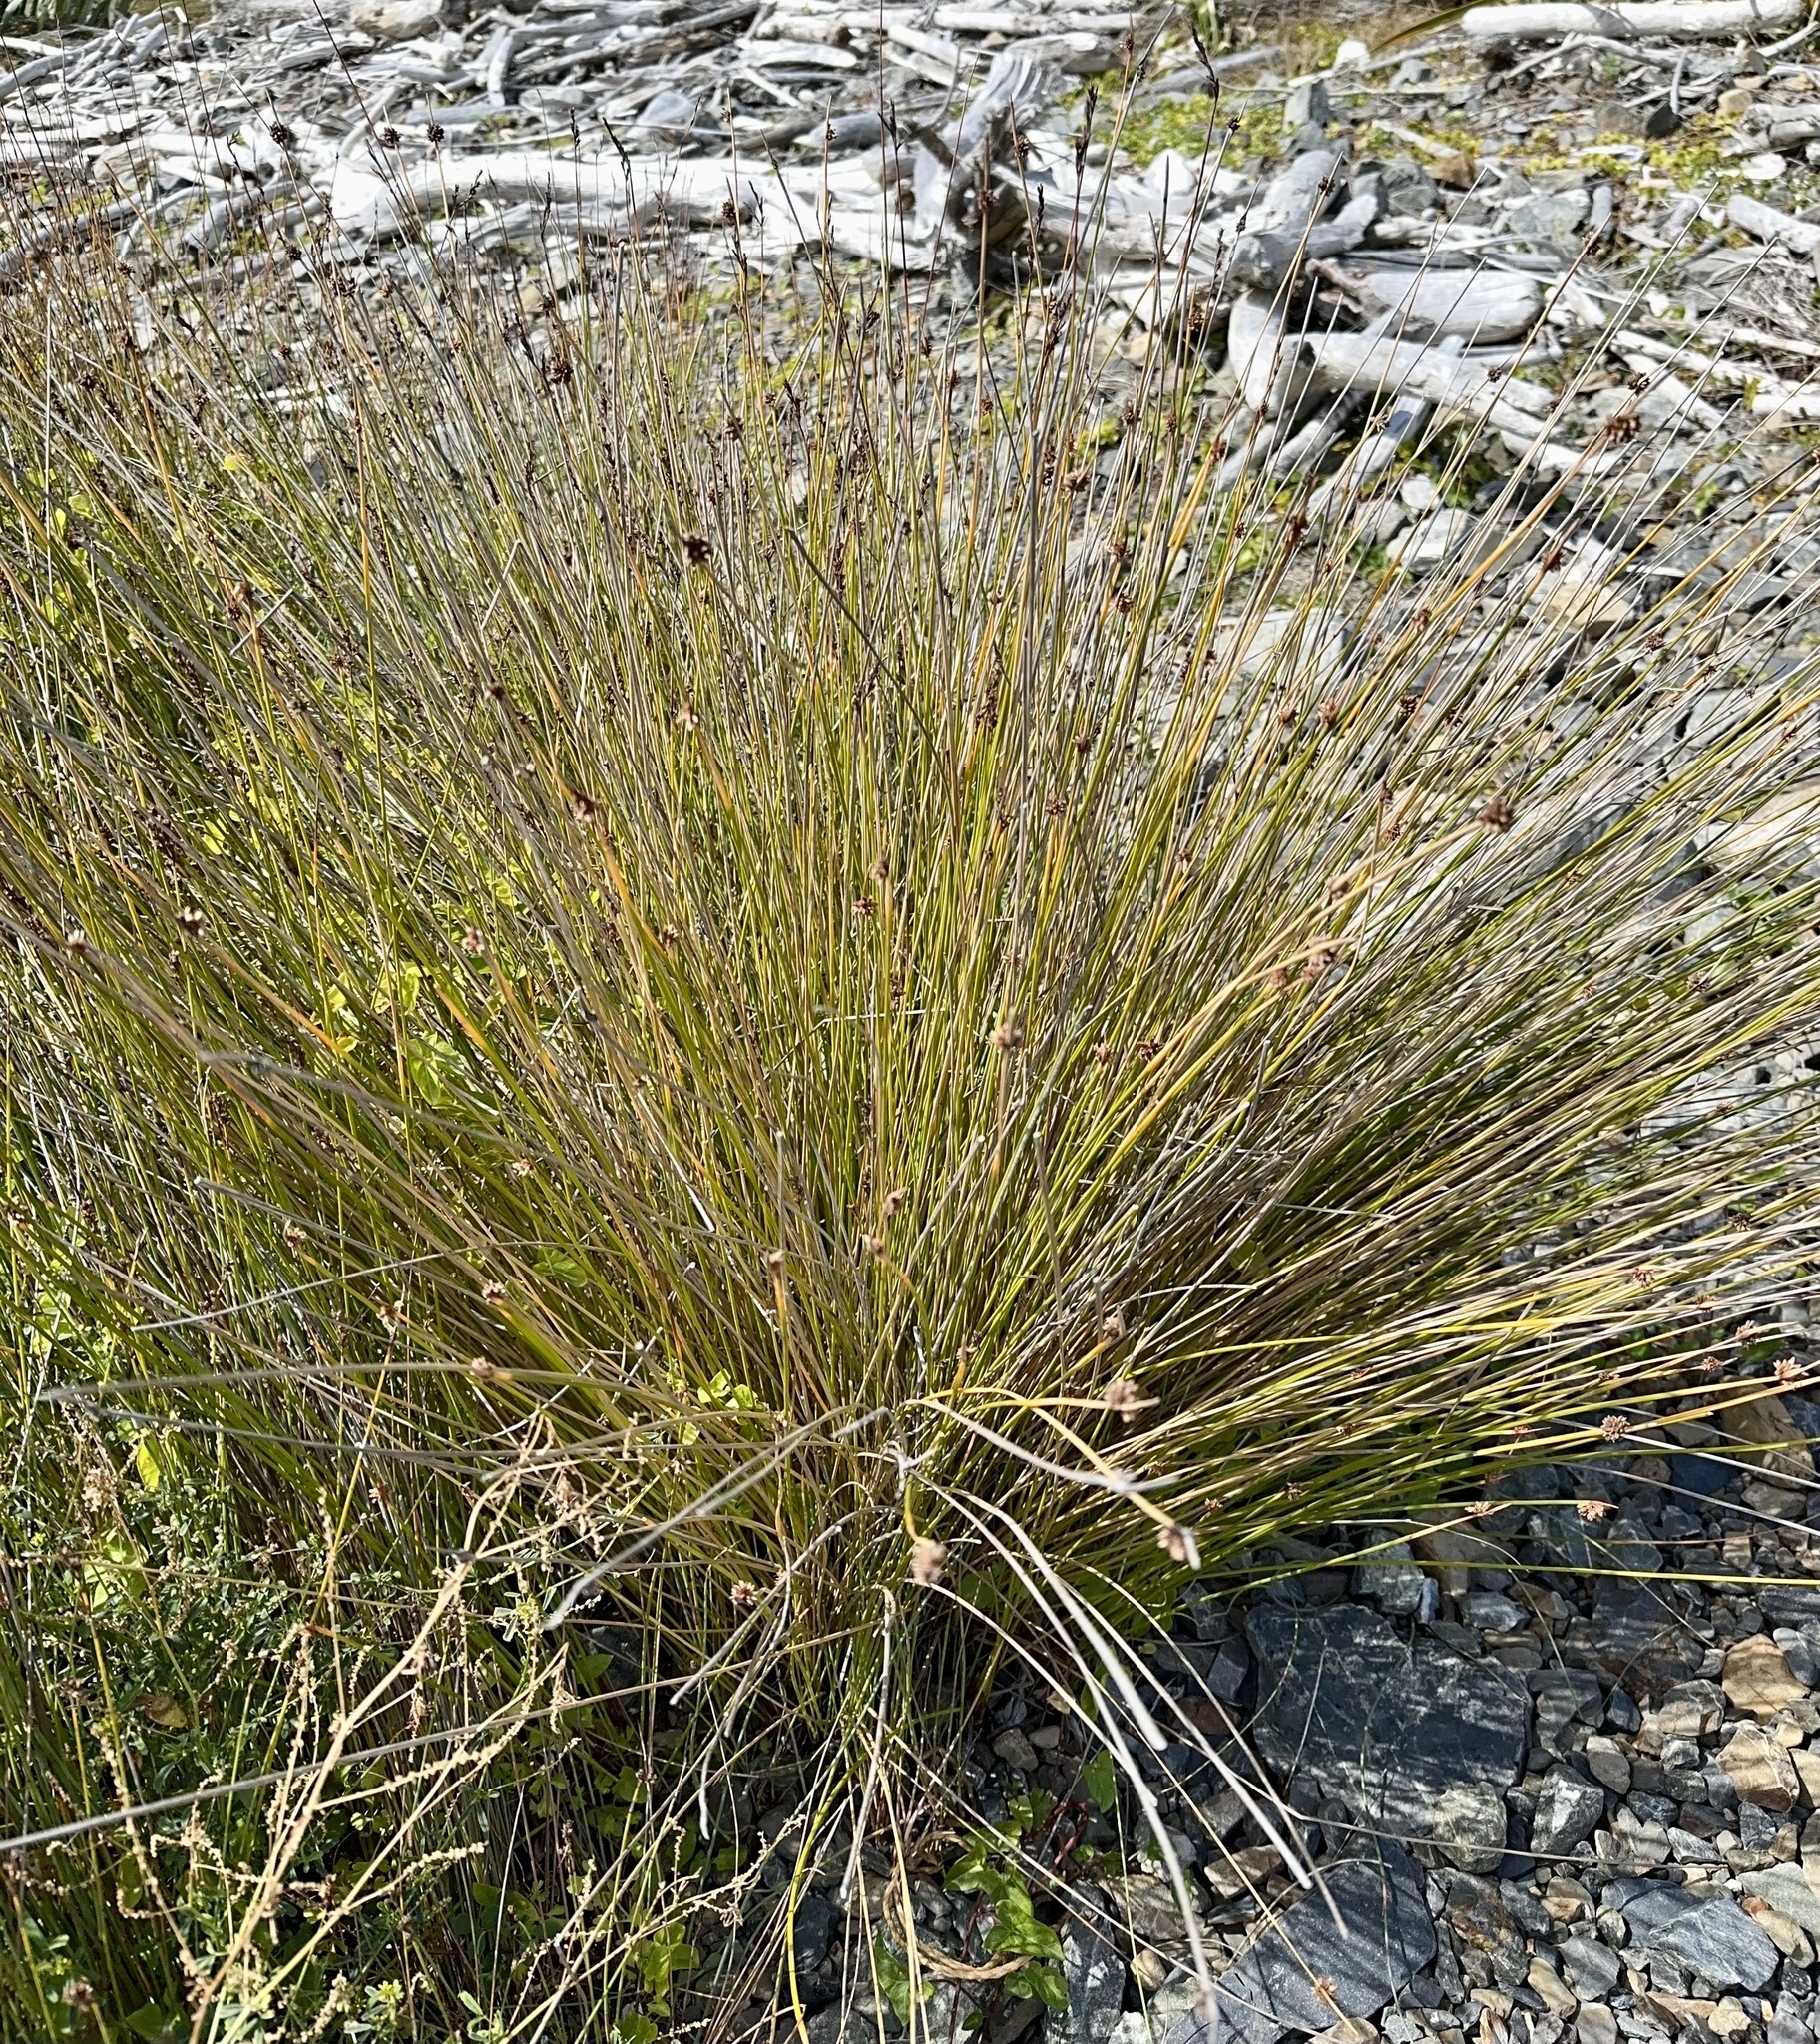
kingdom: Plantae
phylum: Tracheophyta
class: Liliopsida
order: Poales
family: Cyperaceae
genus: Ficinia
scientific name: Ficinia nodosa
